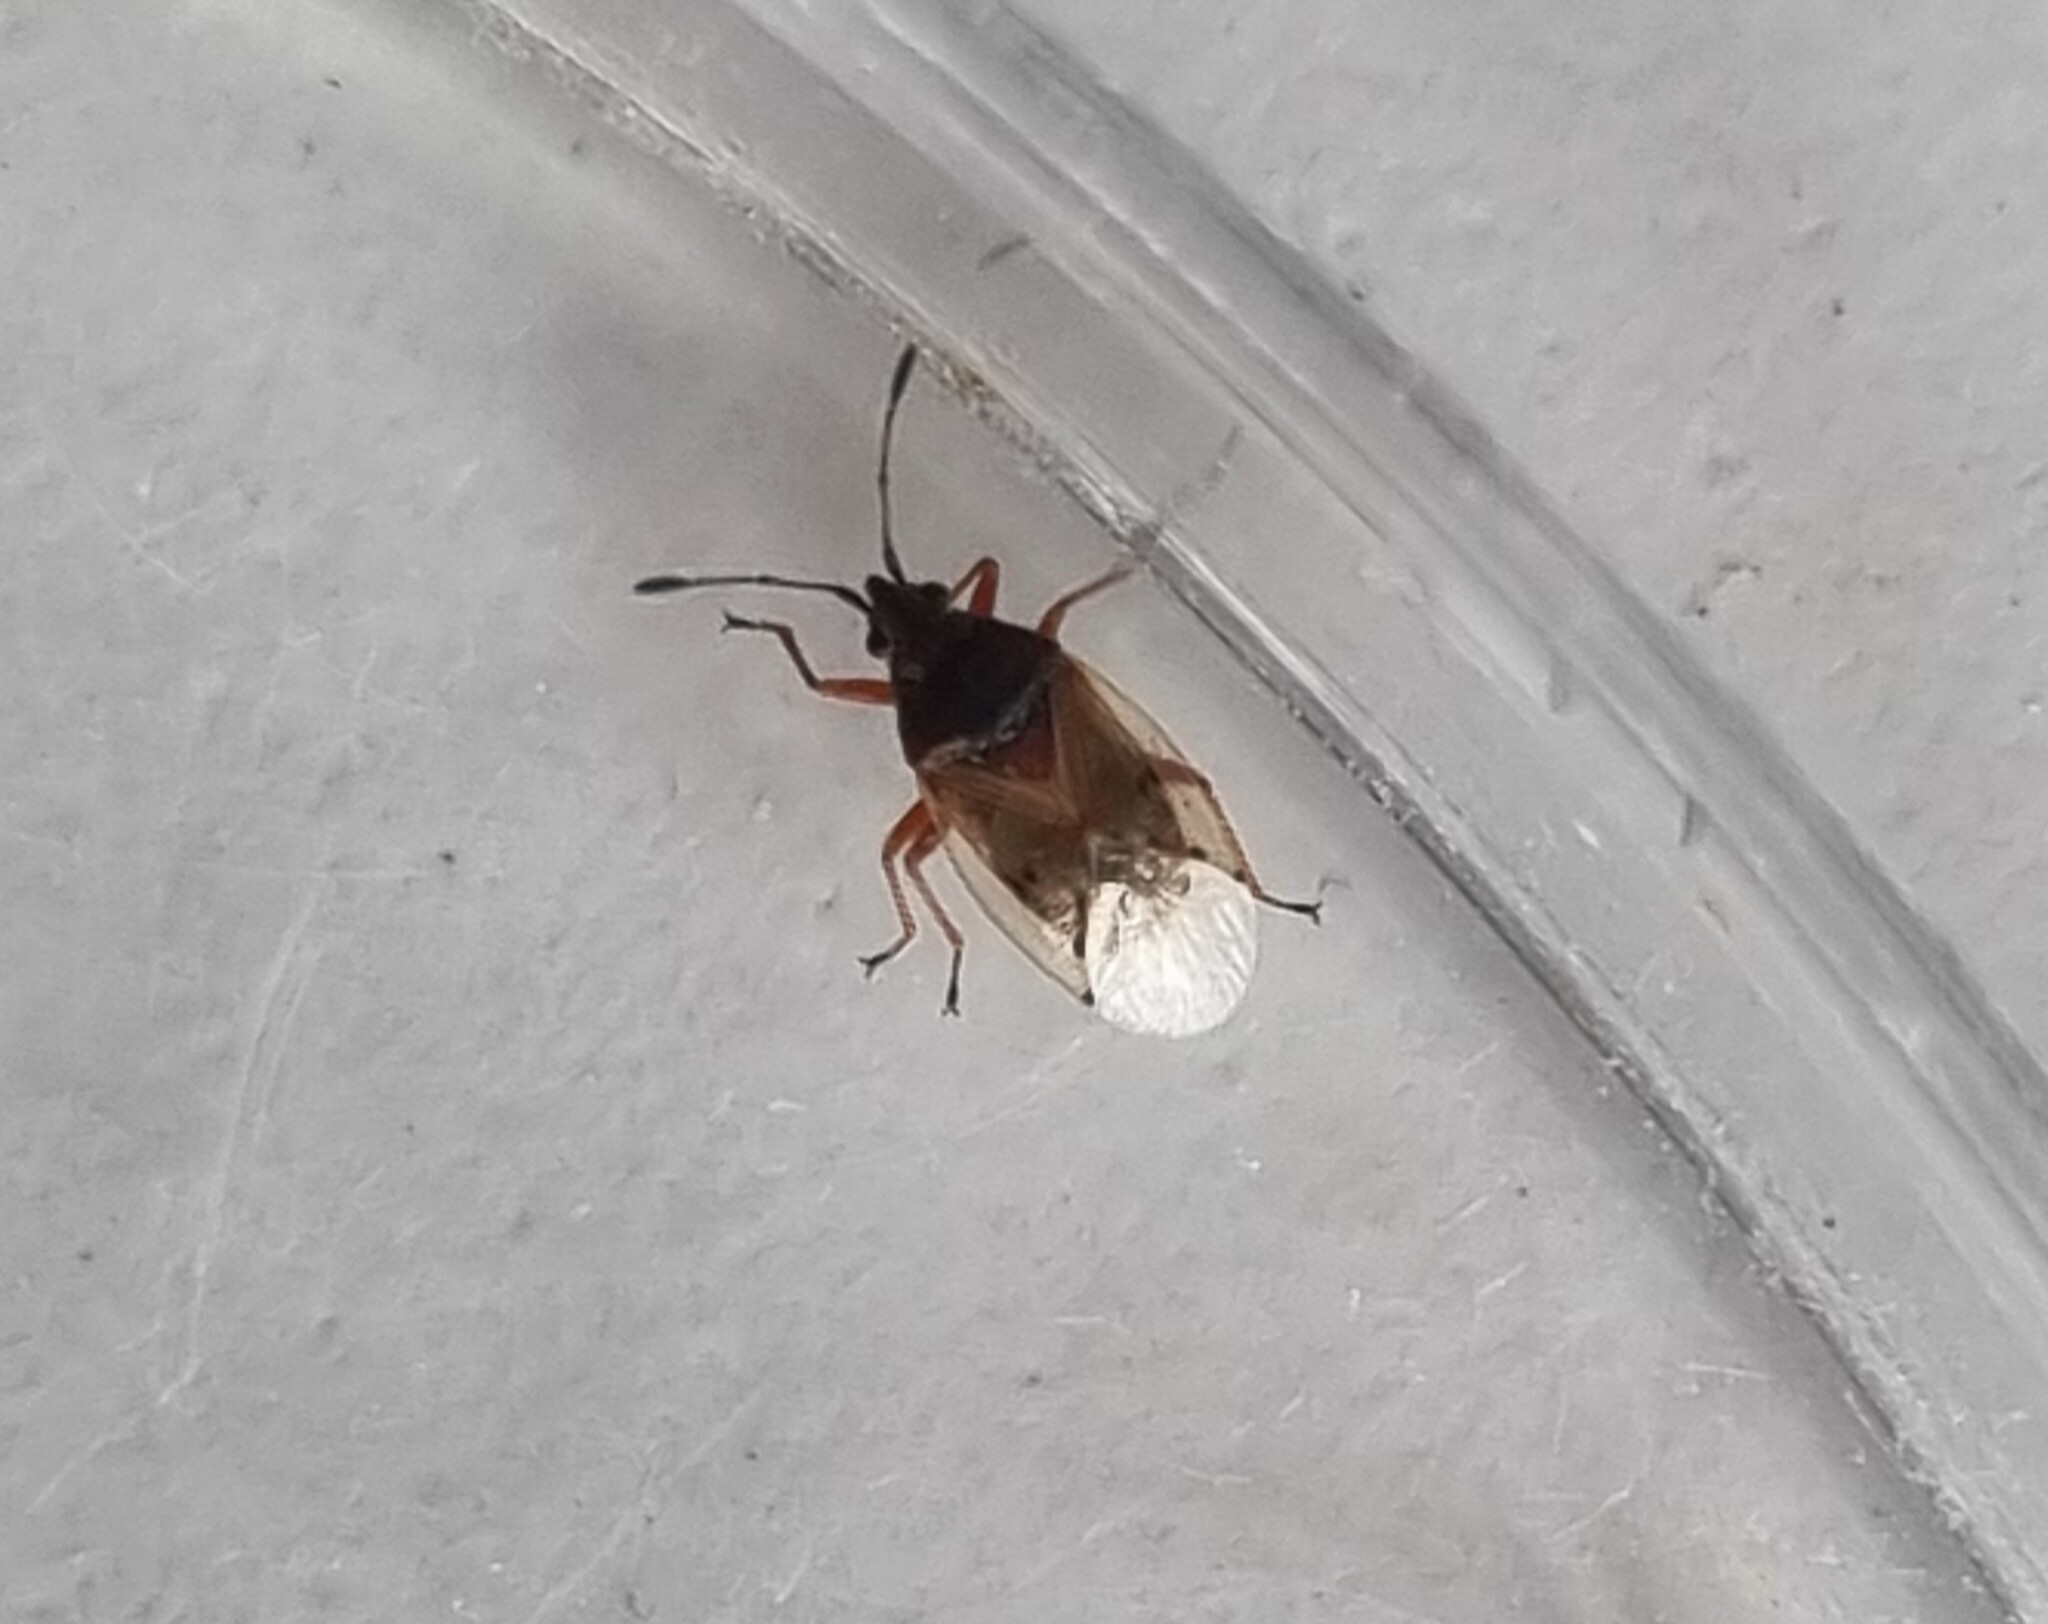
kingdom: Animalia
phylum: Arthropoda
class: Insecta
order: Hemiptera
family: Lygaeidae
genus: Kleidocerys
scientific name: Kleidocerys resedae
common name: Birch catkin bug
